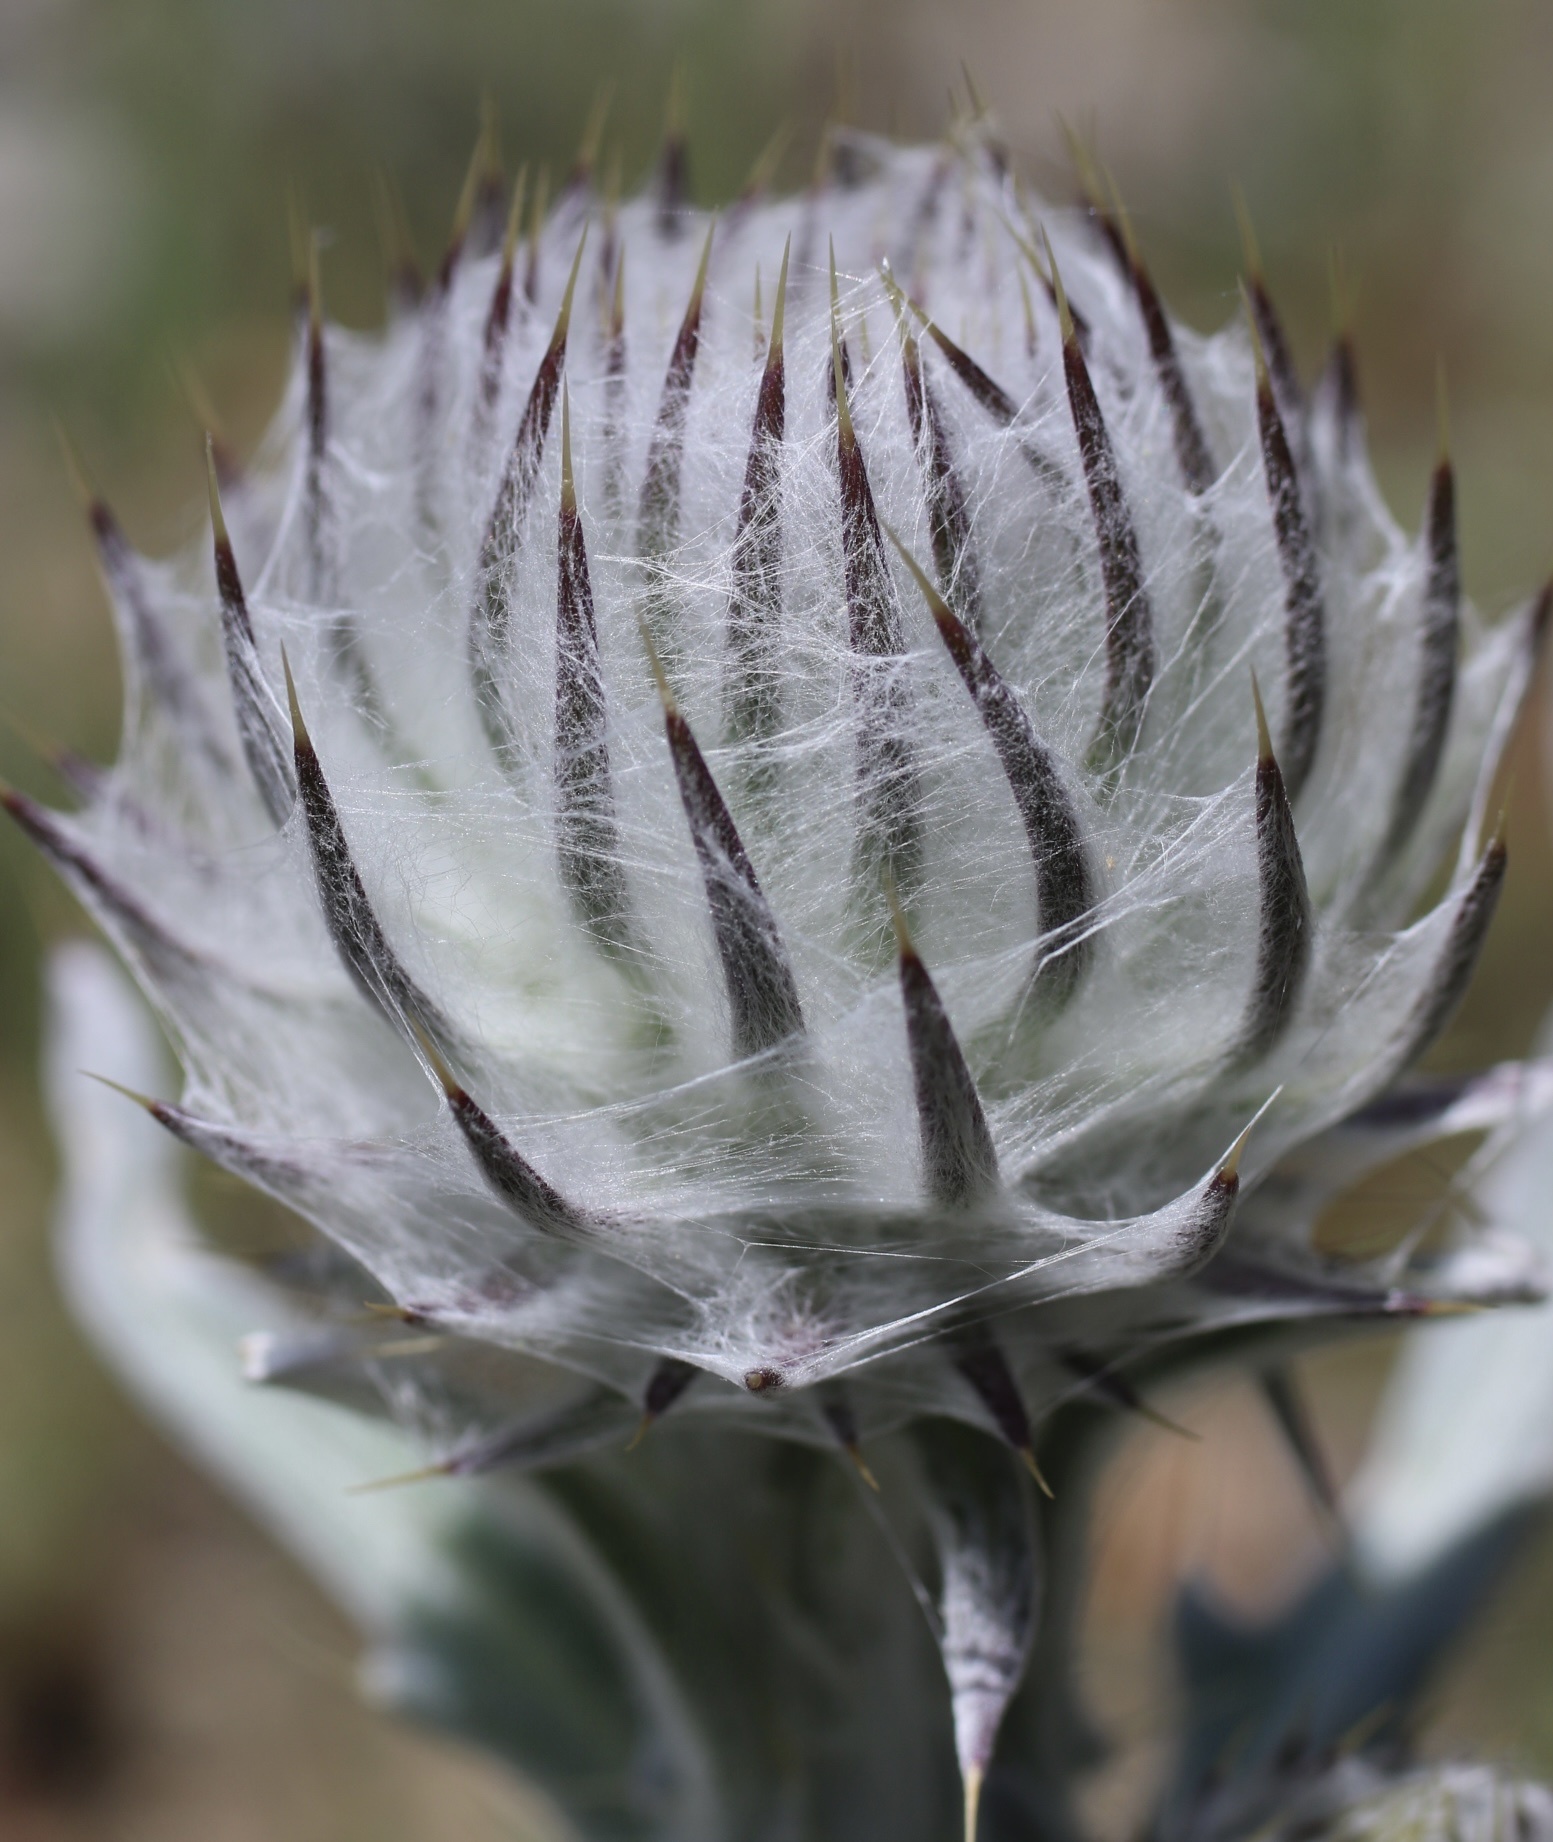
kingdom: Plantae
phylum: Tracheophyta
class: Magnoliopsida
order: Asterales
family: Asteraceae
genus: Cirsium
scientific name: Cirsium occidentale
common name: Western thistle
